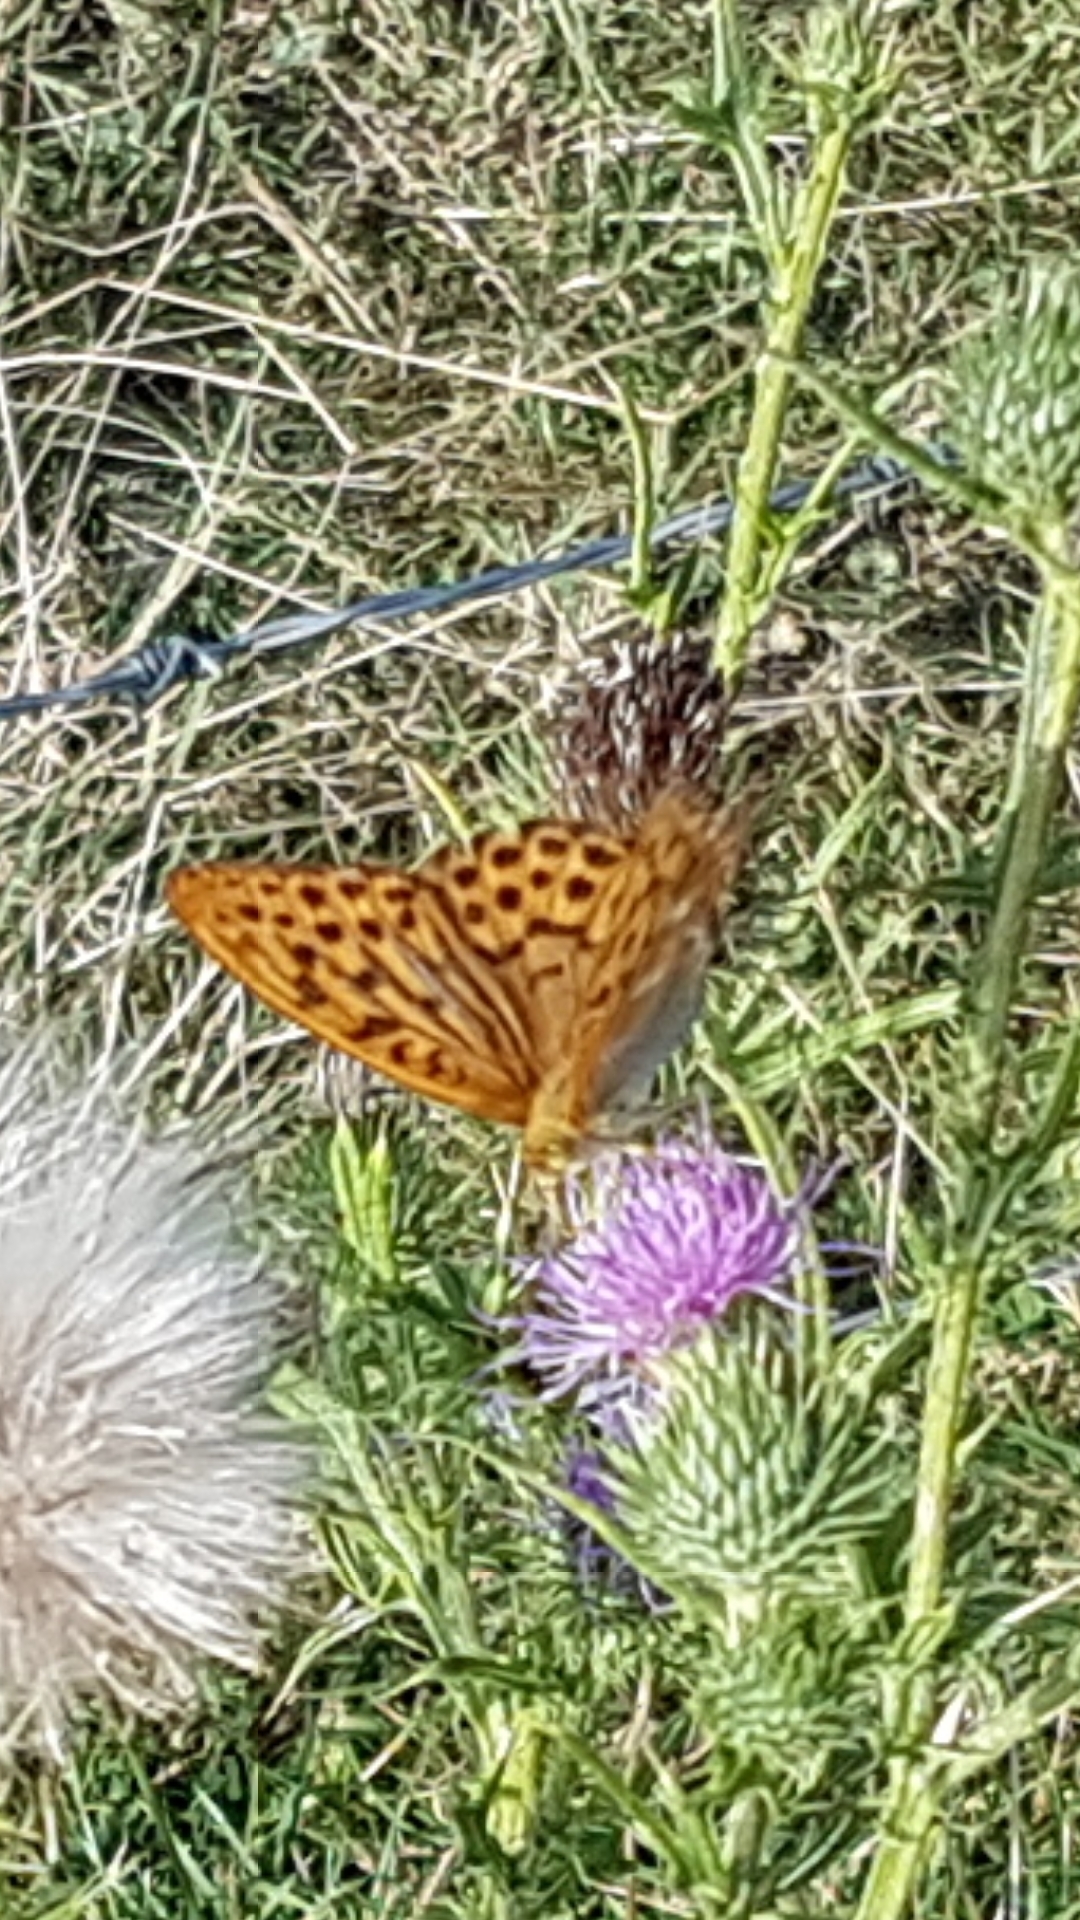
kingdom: Animalia
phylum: Arthropoda
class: Insecta
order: Lepidoptera
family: Nymphalidae
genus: Argynnis
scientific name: Argynnis paphia
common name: Silver-washed fritillary
